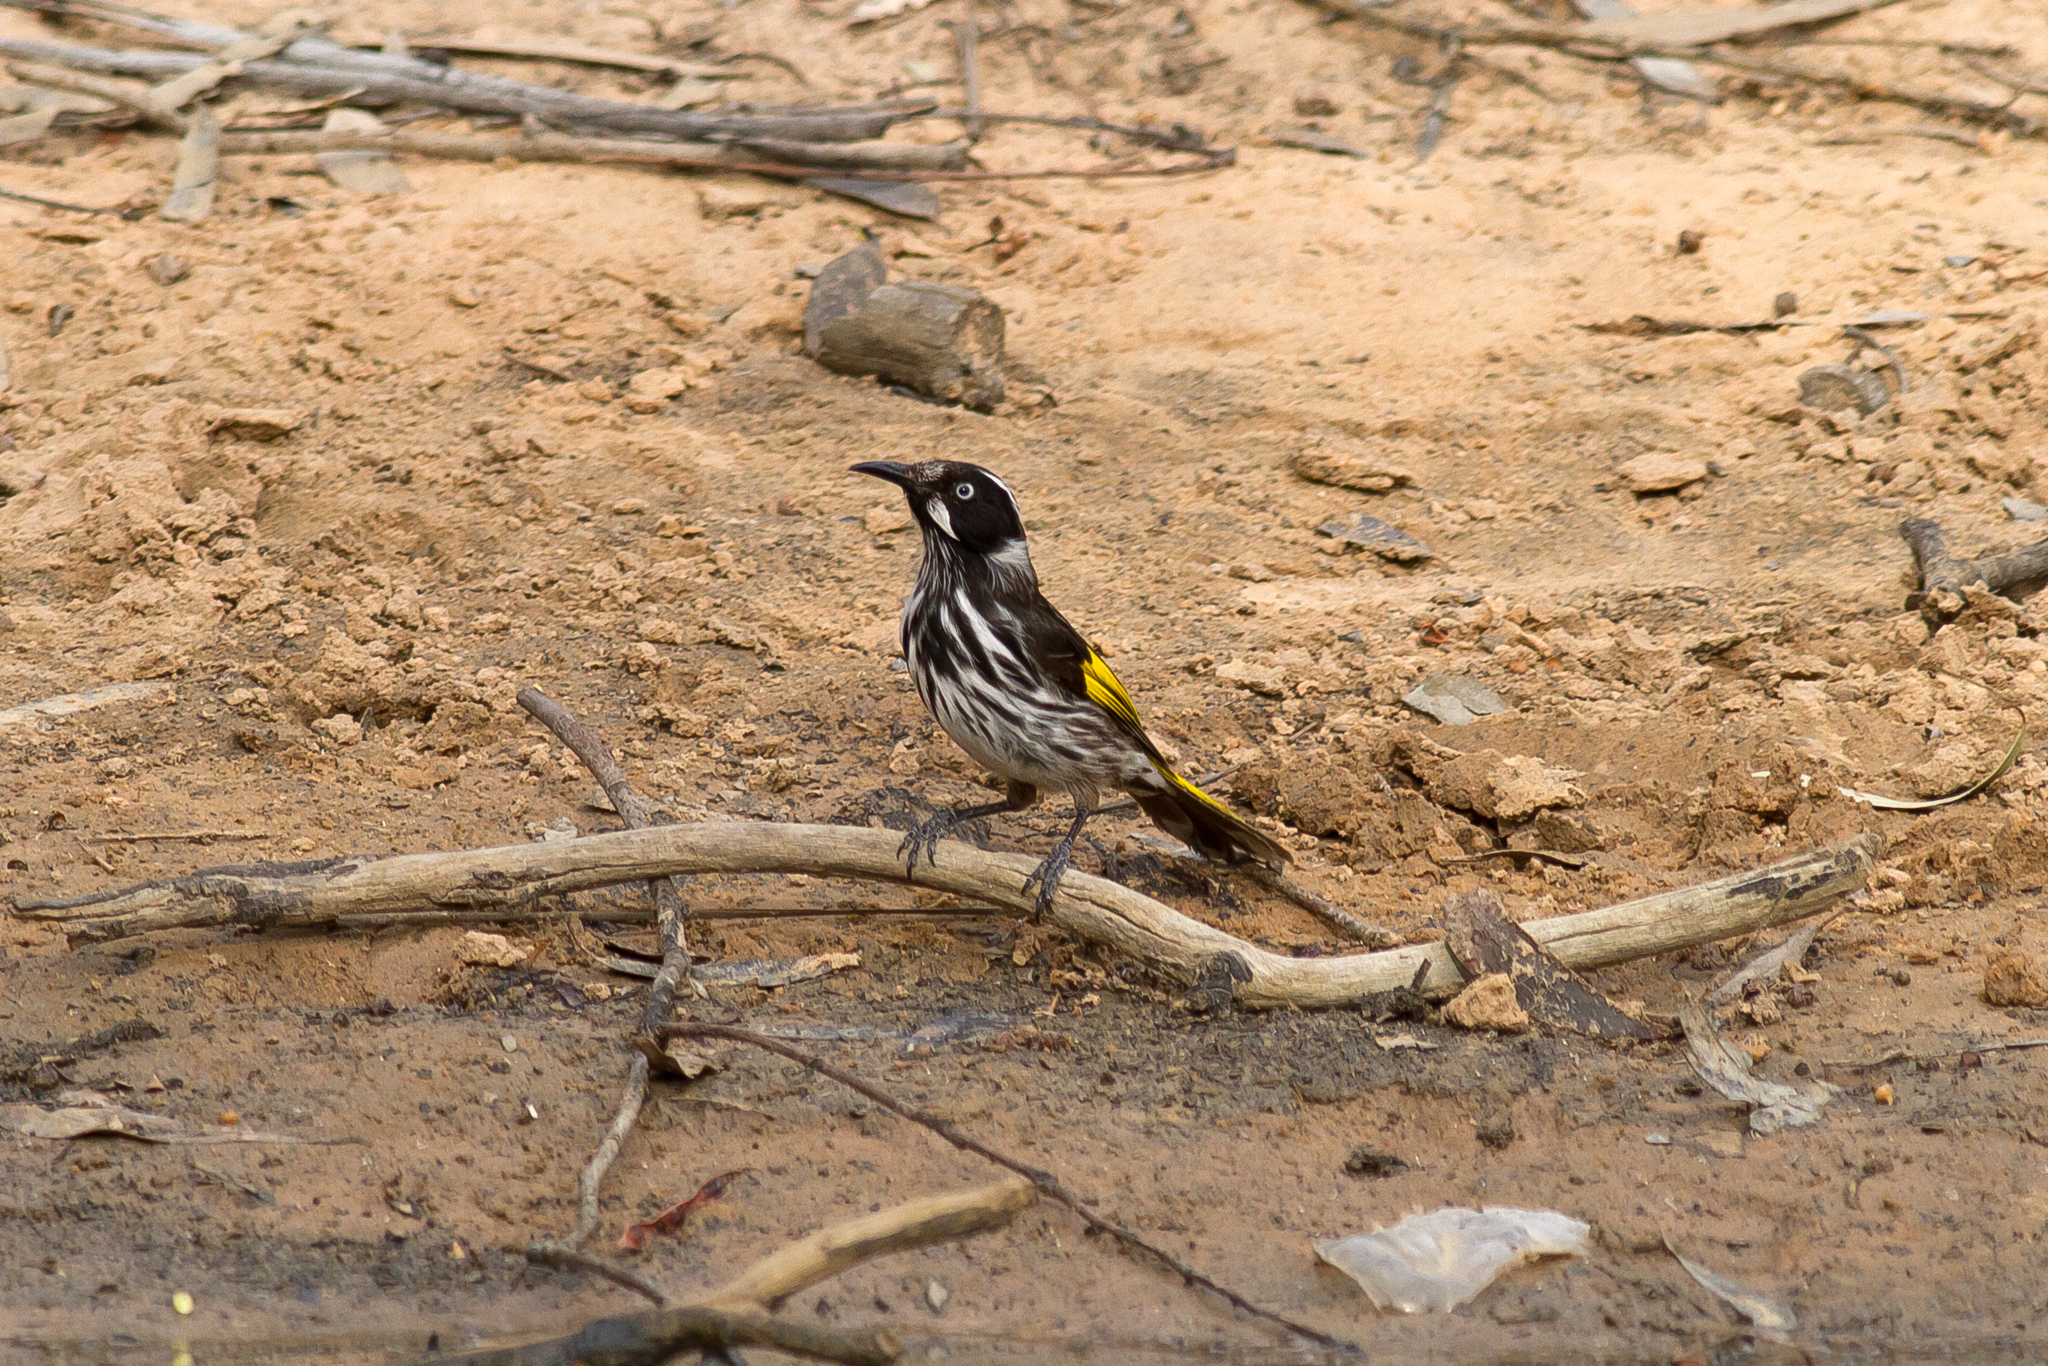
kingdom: Animalia
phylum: Chordata
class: Aves
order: Passeriformes
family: Meliphagidae
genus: Phylidonyris
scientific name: Phylidonyris novaehollandiae
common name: New holland honeyeater
